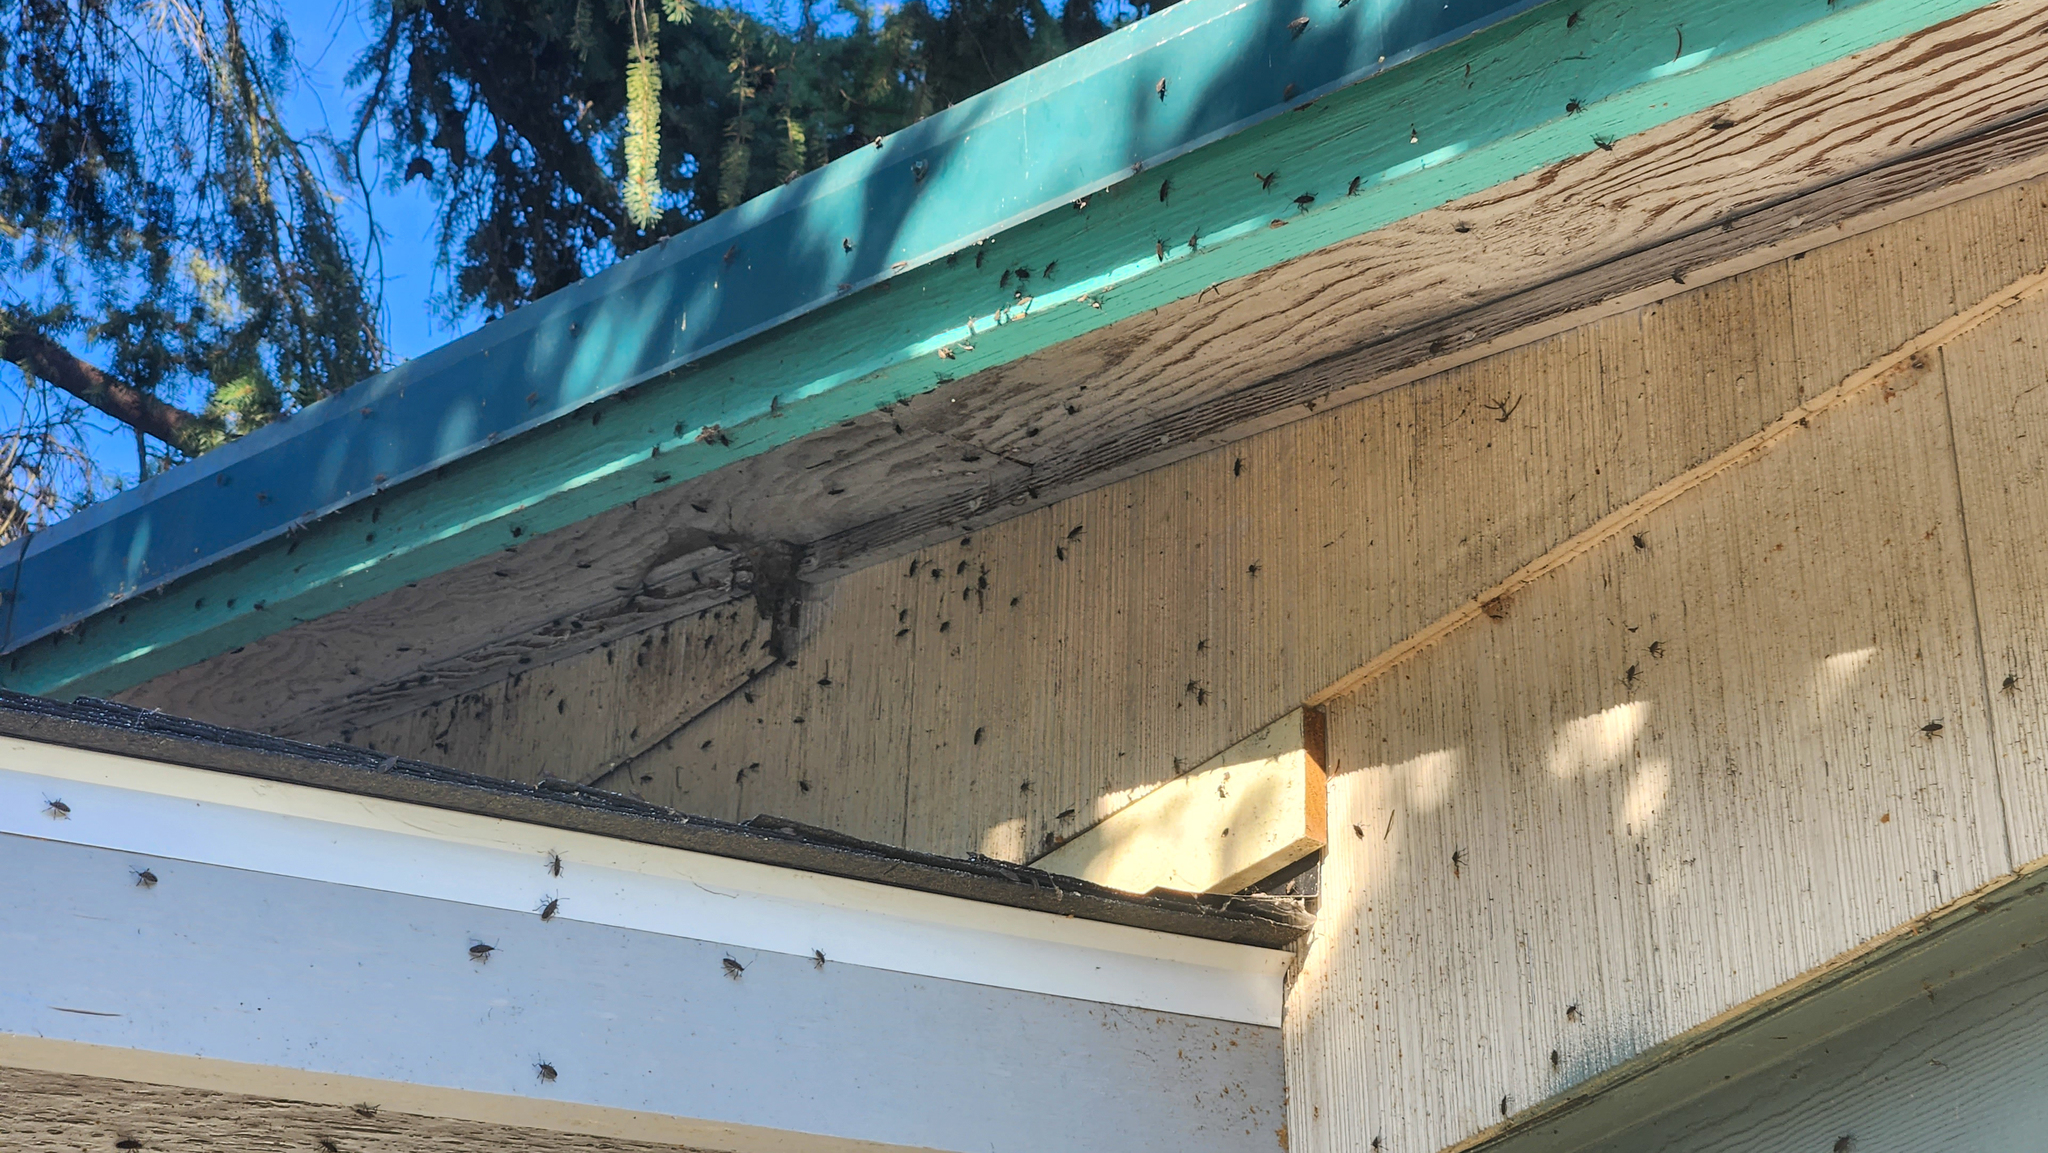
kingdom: Animalia
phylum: Arthropoda
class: Insecta
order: Hemiptera
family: Rhopalidae
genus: Boisea
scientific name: Boisea rubrolineata
